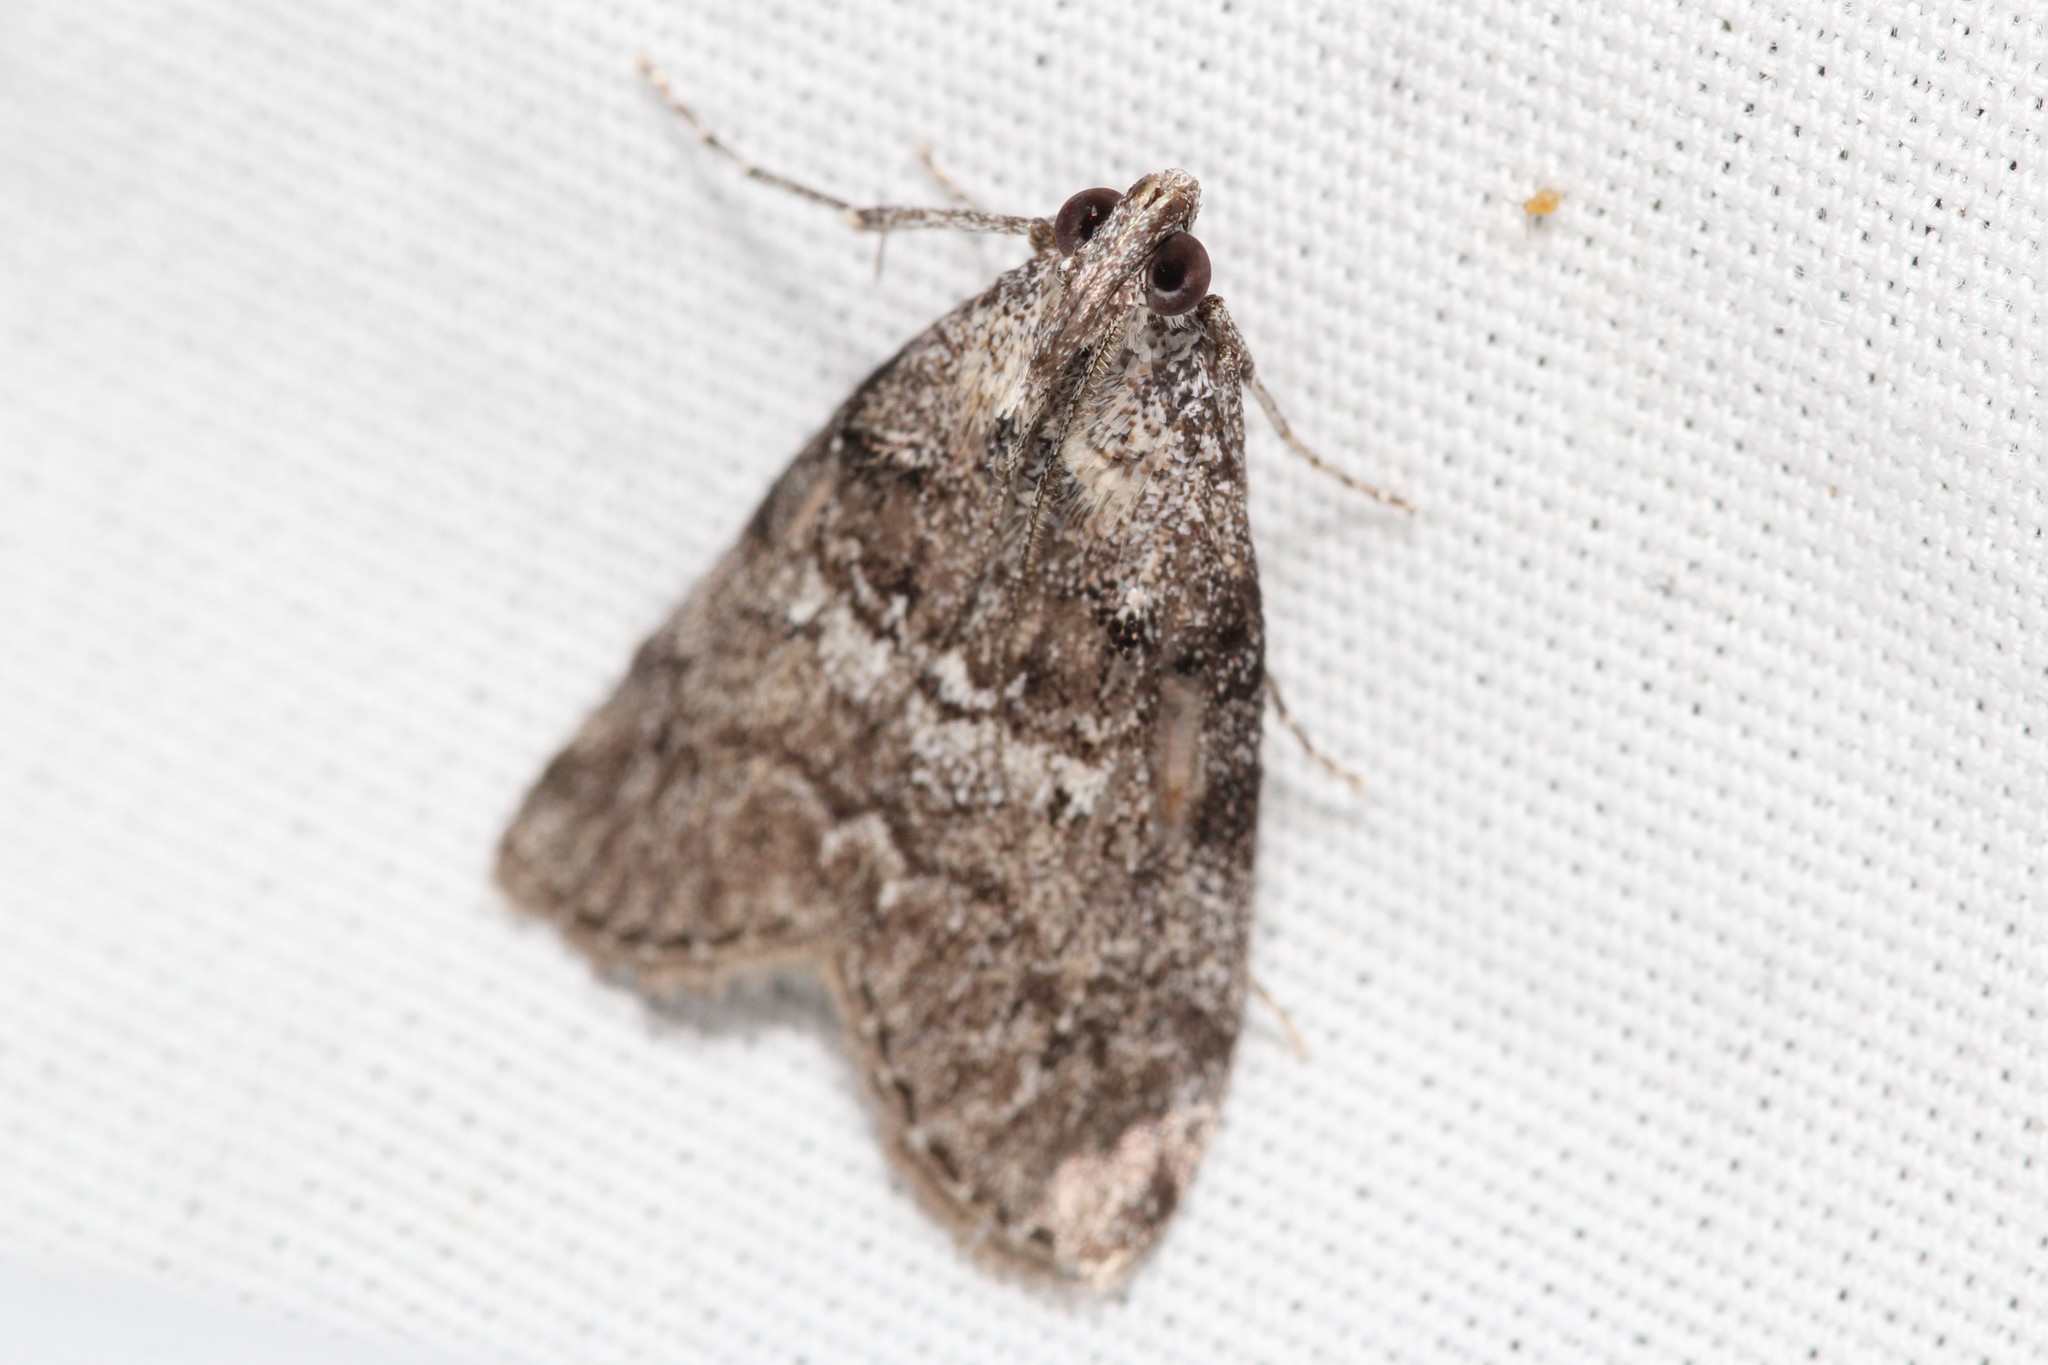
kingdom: Animalia
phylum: Arthropoda
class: Insecta
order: Lepidoptera
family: Pyralidae
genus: Pococera
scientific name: Pococera asperatella
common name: Maple webworm moth
